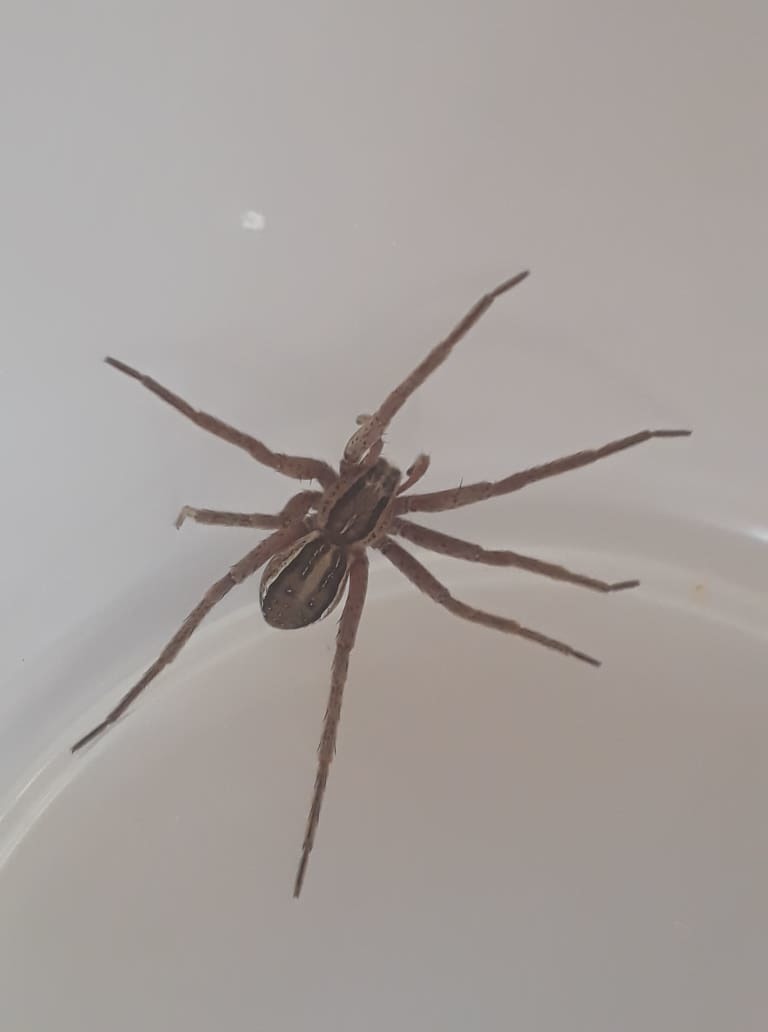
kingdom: Animalia
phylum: Arthropoda
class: Arachnida
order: Araneae
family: Pisauridae
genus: Dolomedes
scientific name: Dolomedes minor
